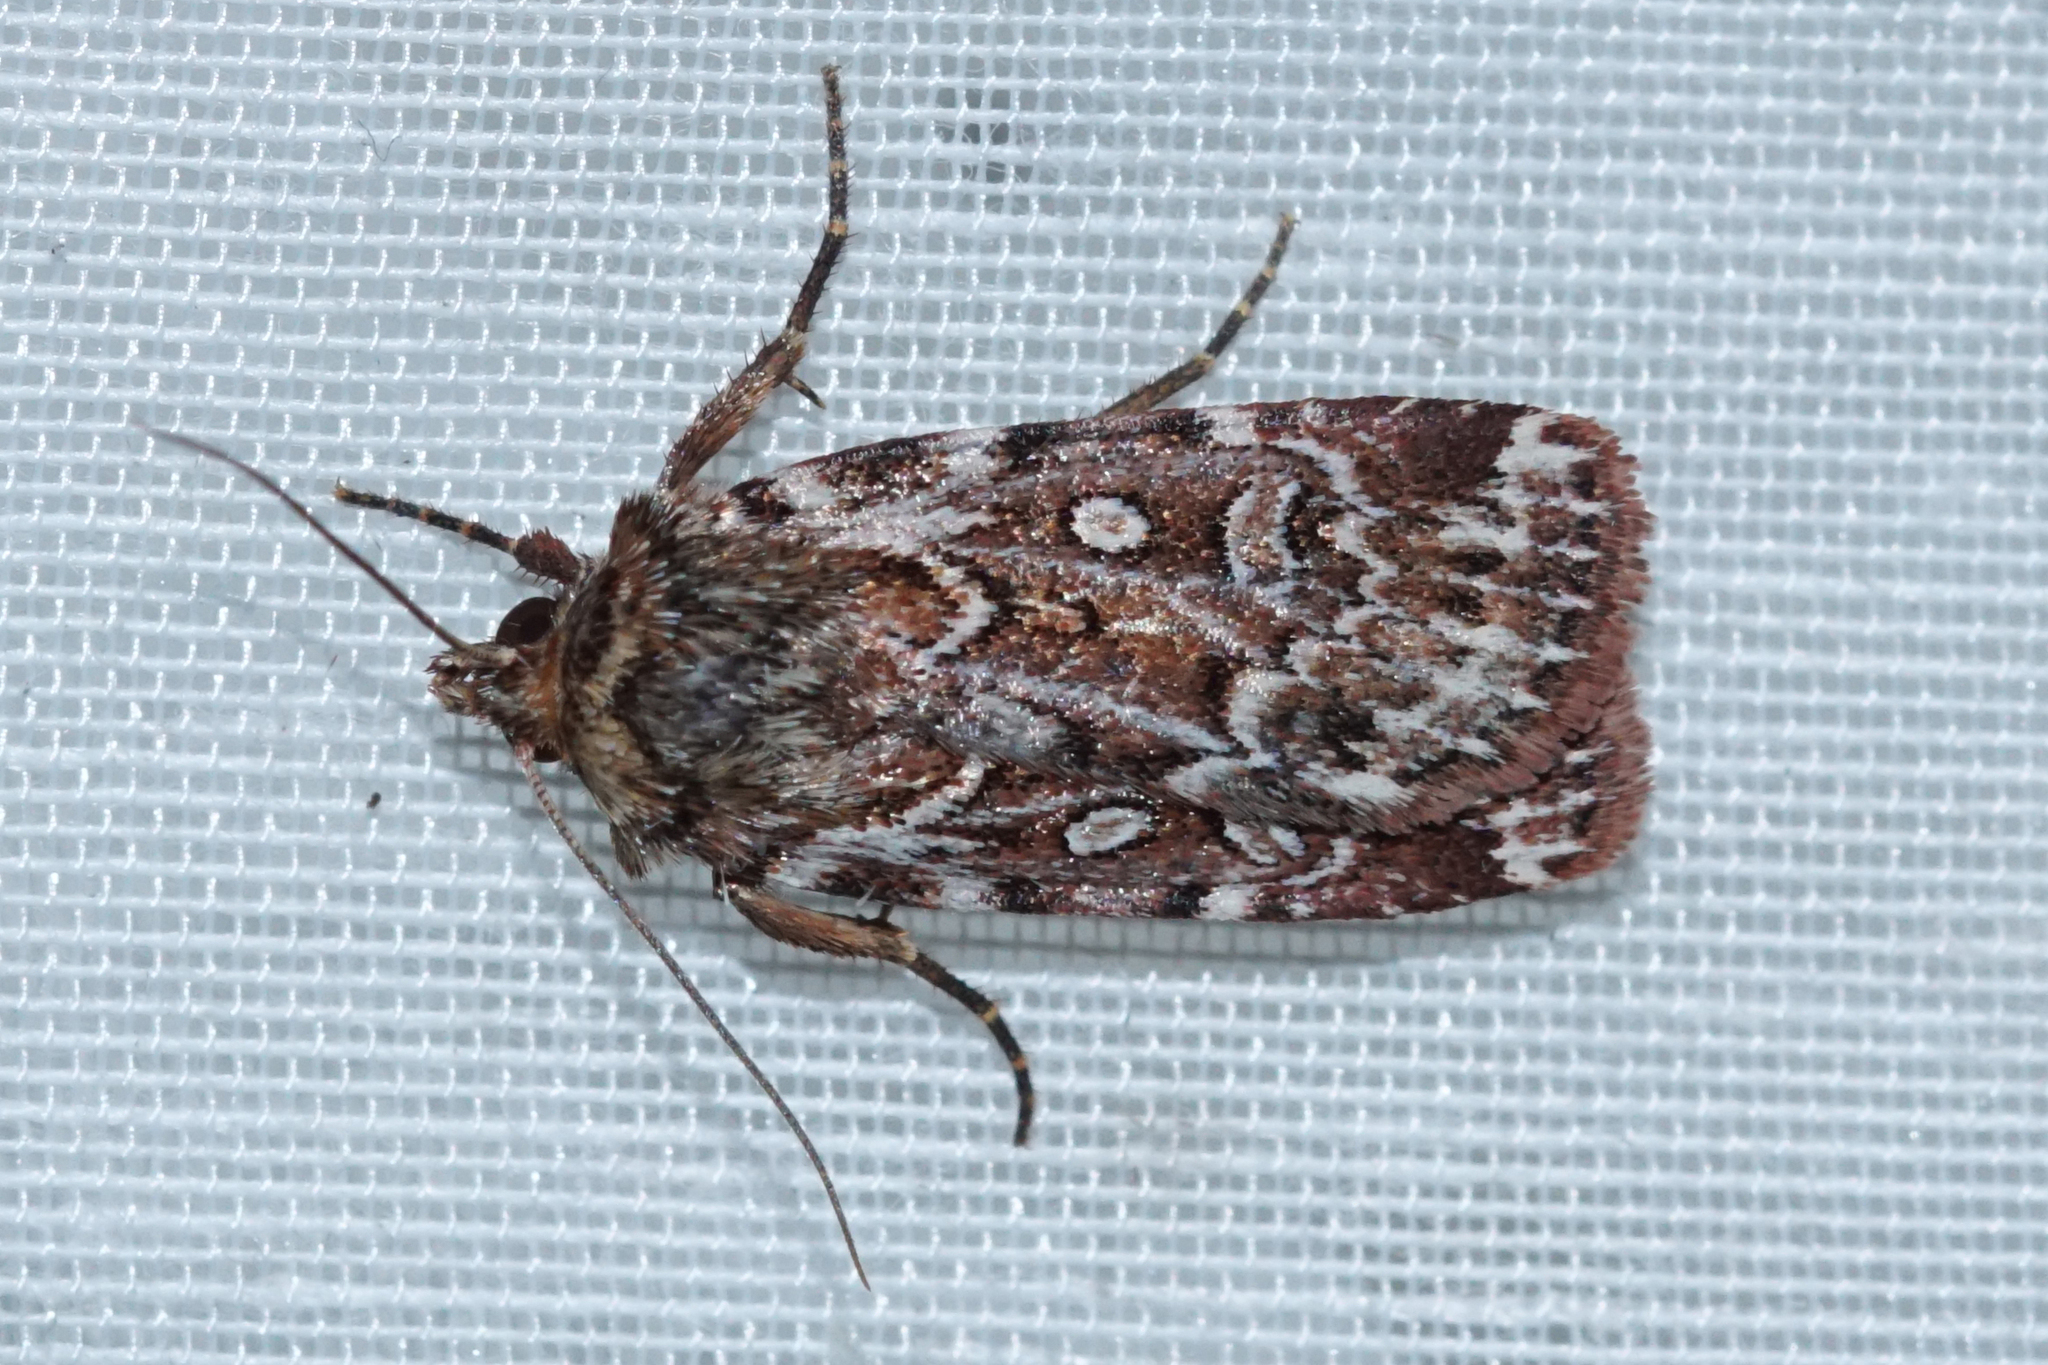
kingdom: Animalia
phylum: Arthropoda
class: Insecta
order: Lepidoptera
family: Noctuidae
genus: Lycophotia
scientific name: Lycophotia porphyrea
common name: True lover's knot
